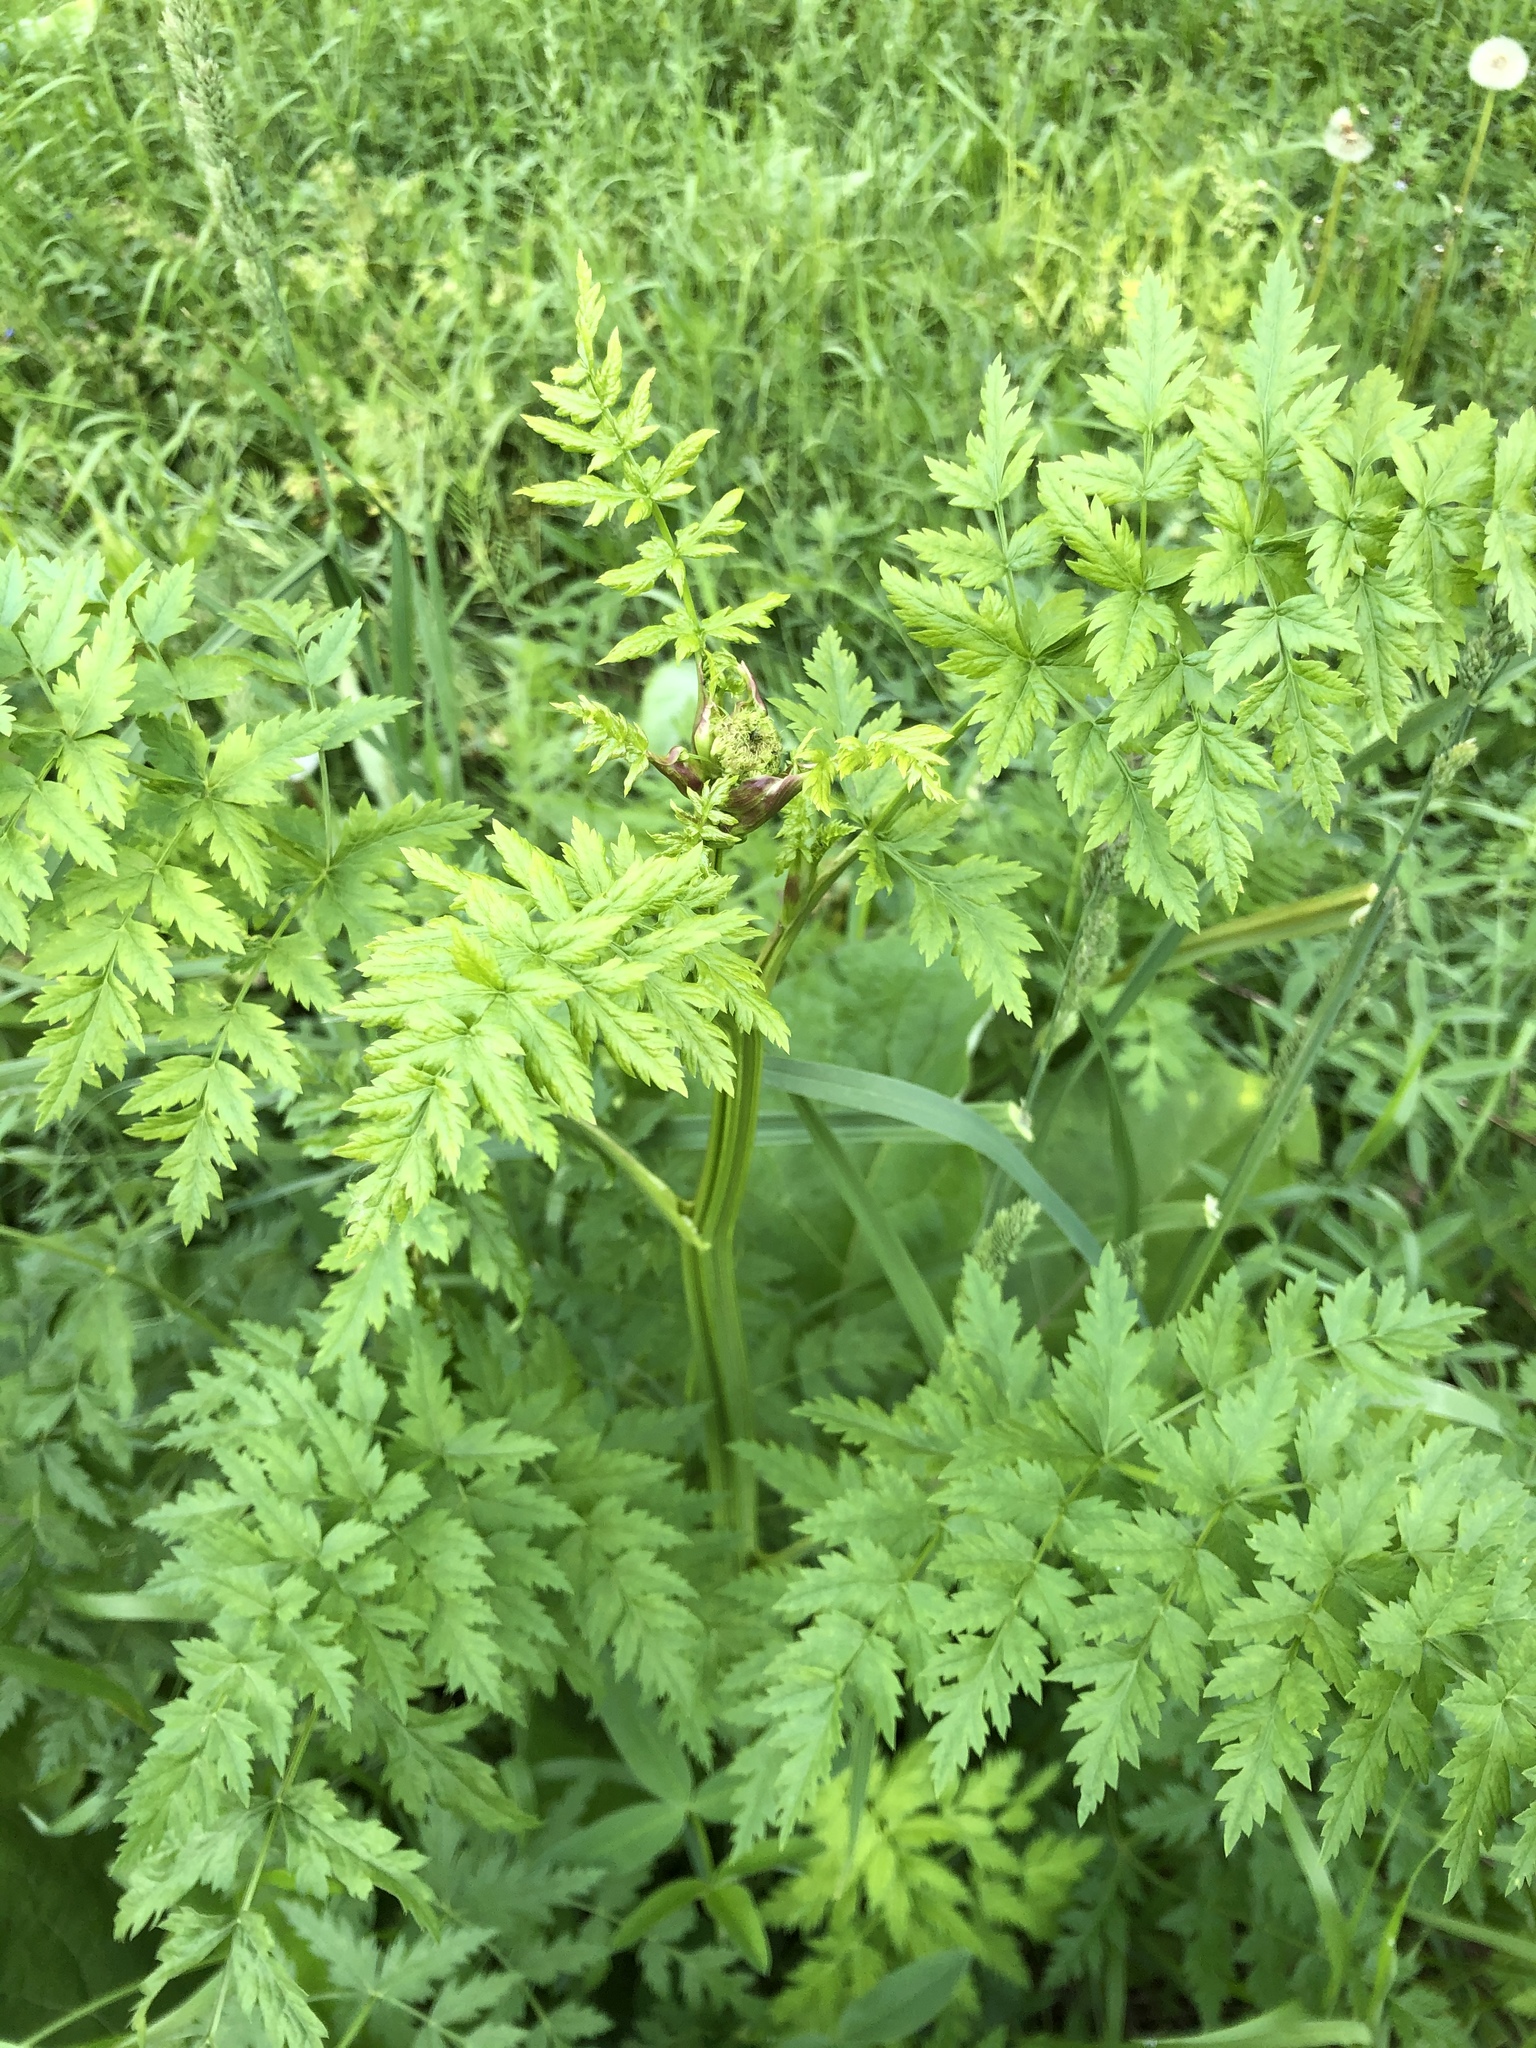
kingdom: Plantae
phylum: Tracheophyta
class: Magnoliopsida
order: Apiales
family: Apiaceae
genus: Seseli
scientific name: Seseli libanotis
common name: Mooncarrot
